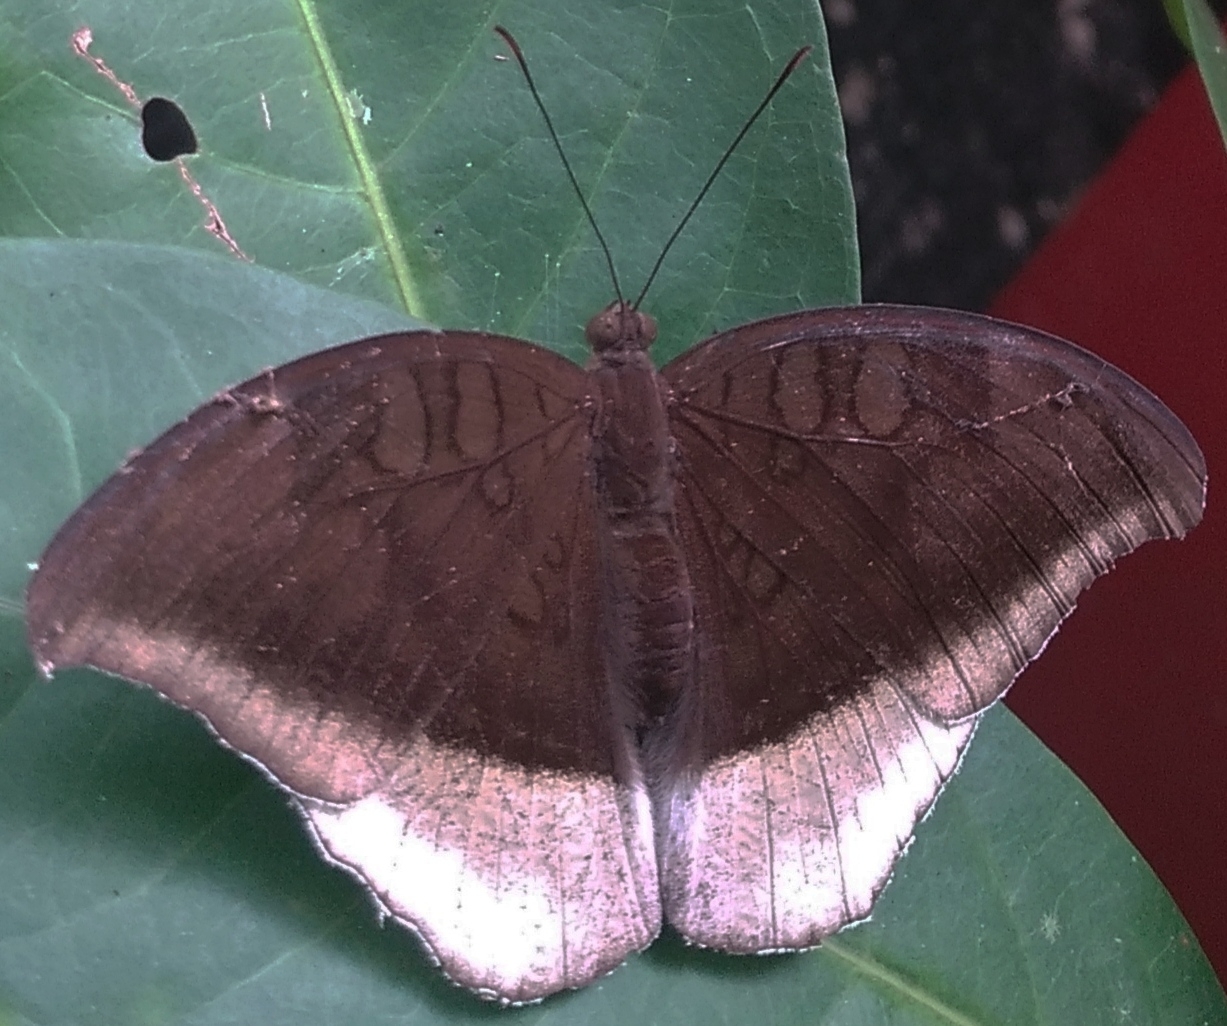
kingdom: Animalia
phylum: Arthropoda
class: Insecta
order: Lepidoptera
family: Nymphalidae
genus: Tanaecia
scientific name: Tanaecia lepidea
